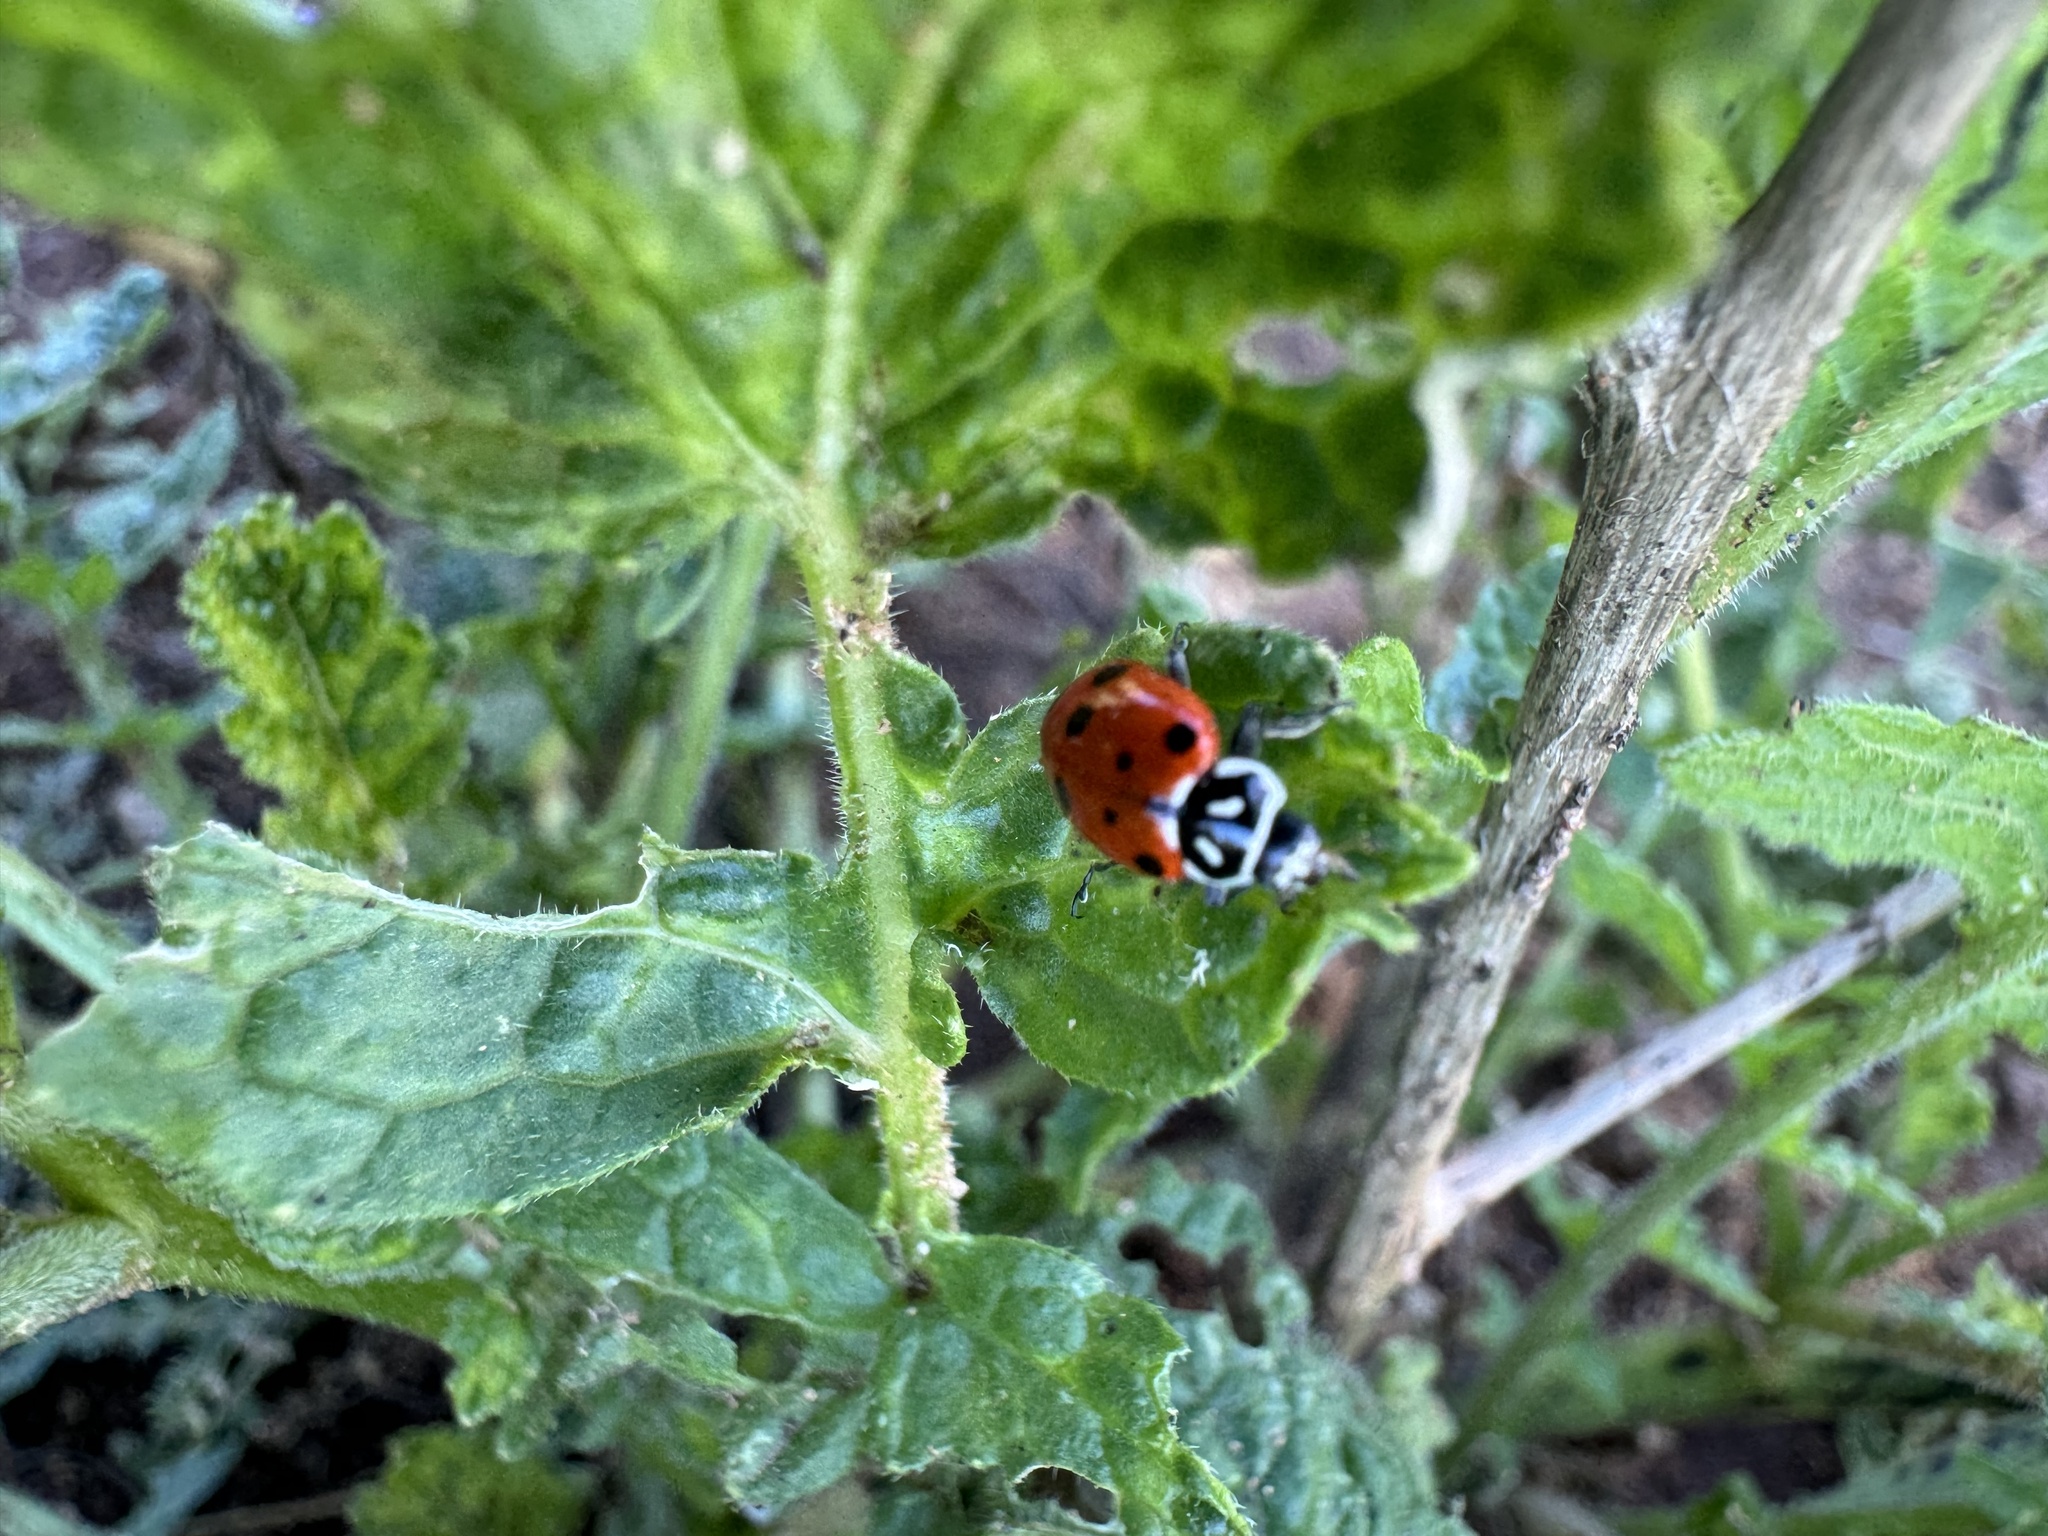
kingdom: Animalia
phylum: Arthropoda
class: Insecta
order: Coleoptera
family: Coccinellidae
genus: Hippodamia
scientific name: Hippodamia convergens
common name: Convergent lady beetle
